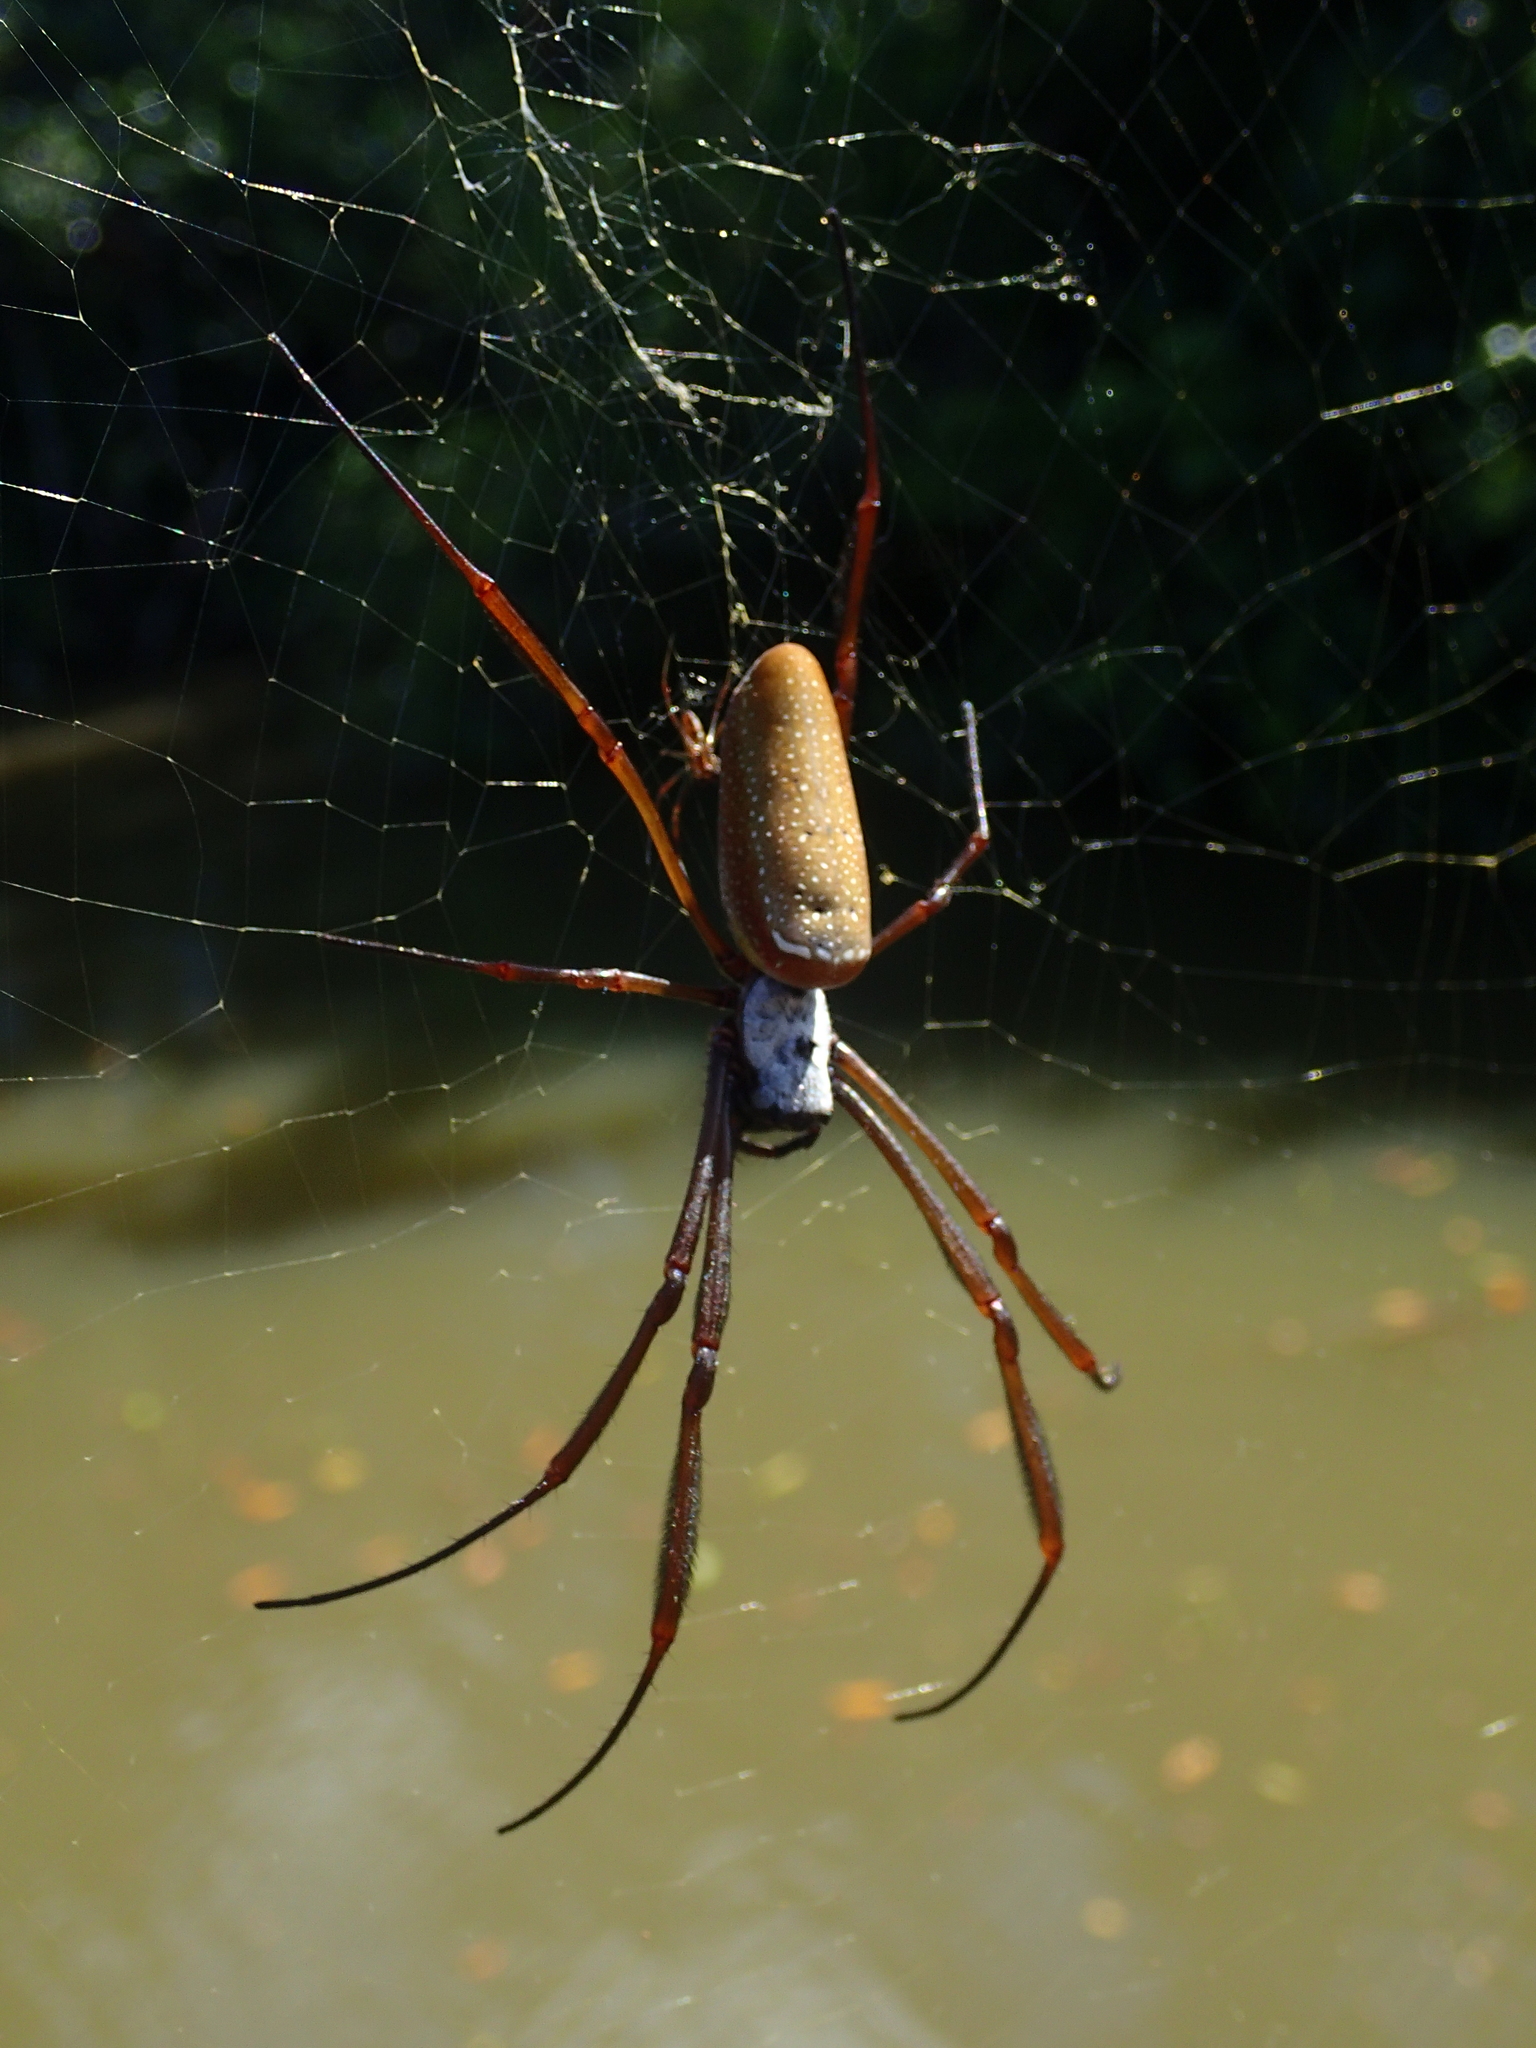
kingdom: Animalia
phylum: Arthropoda
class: Arachnida
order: Araneae
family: Araneidae
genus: Nephila
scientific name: Nephila cornuta
